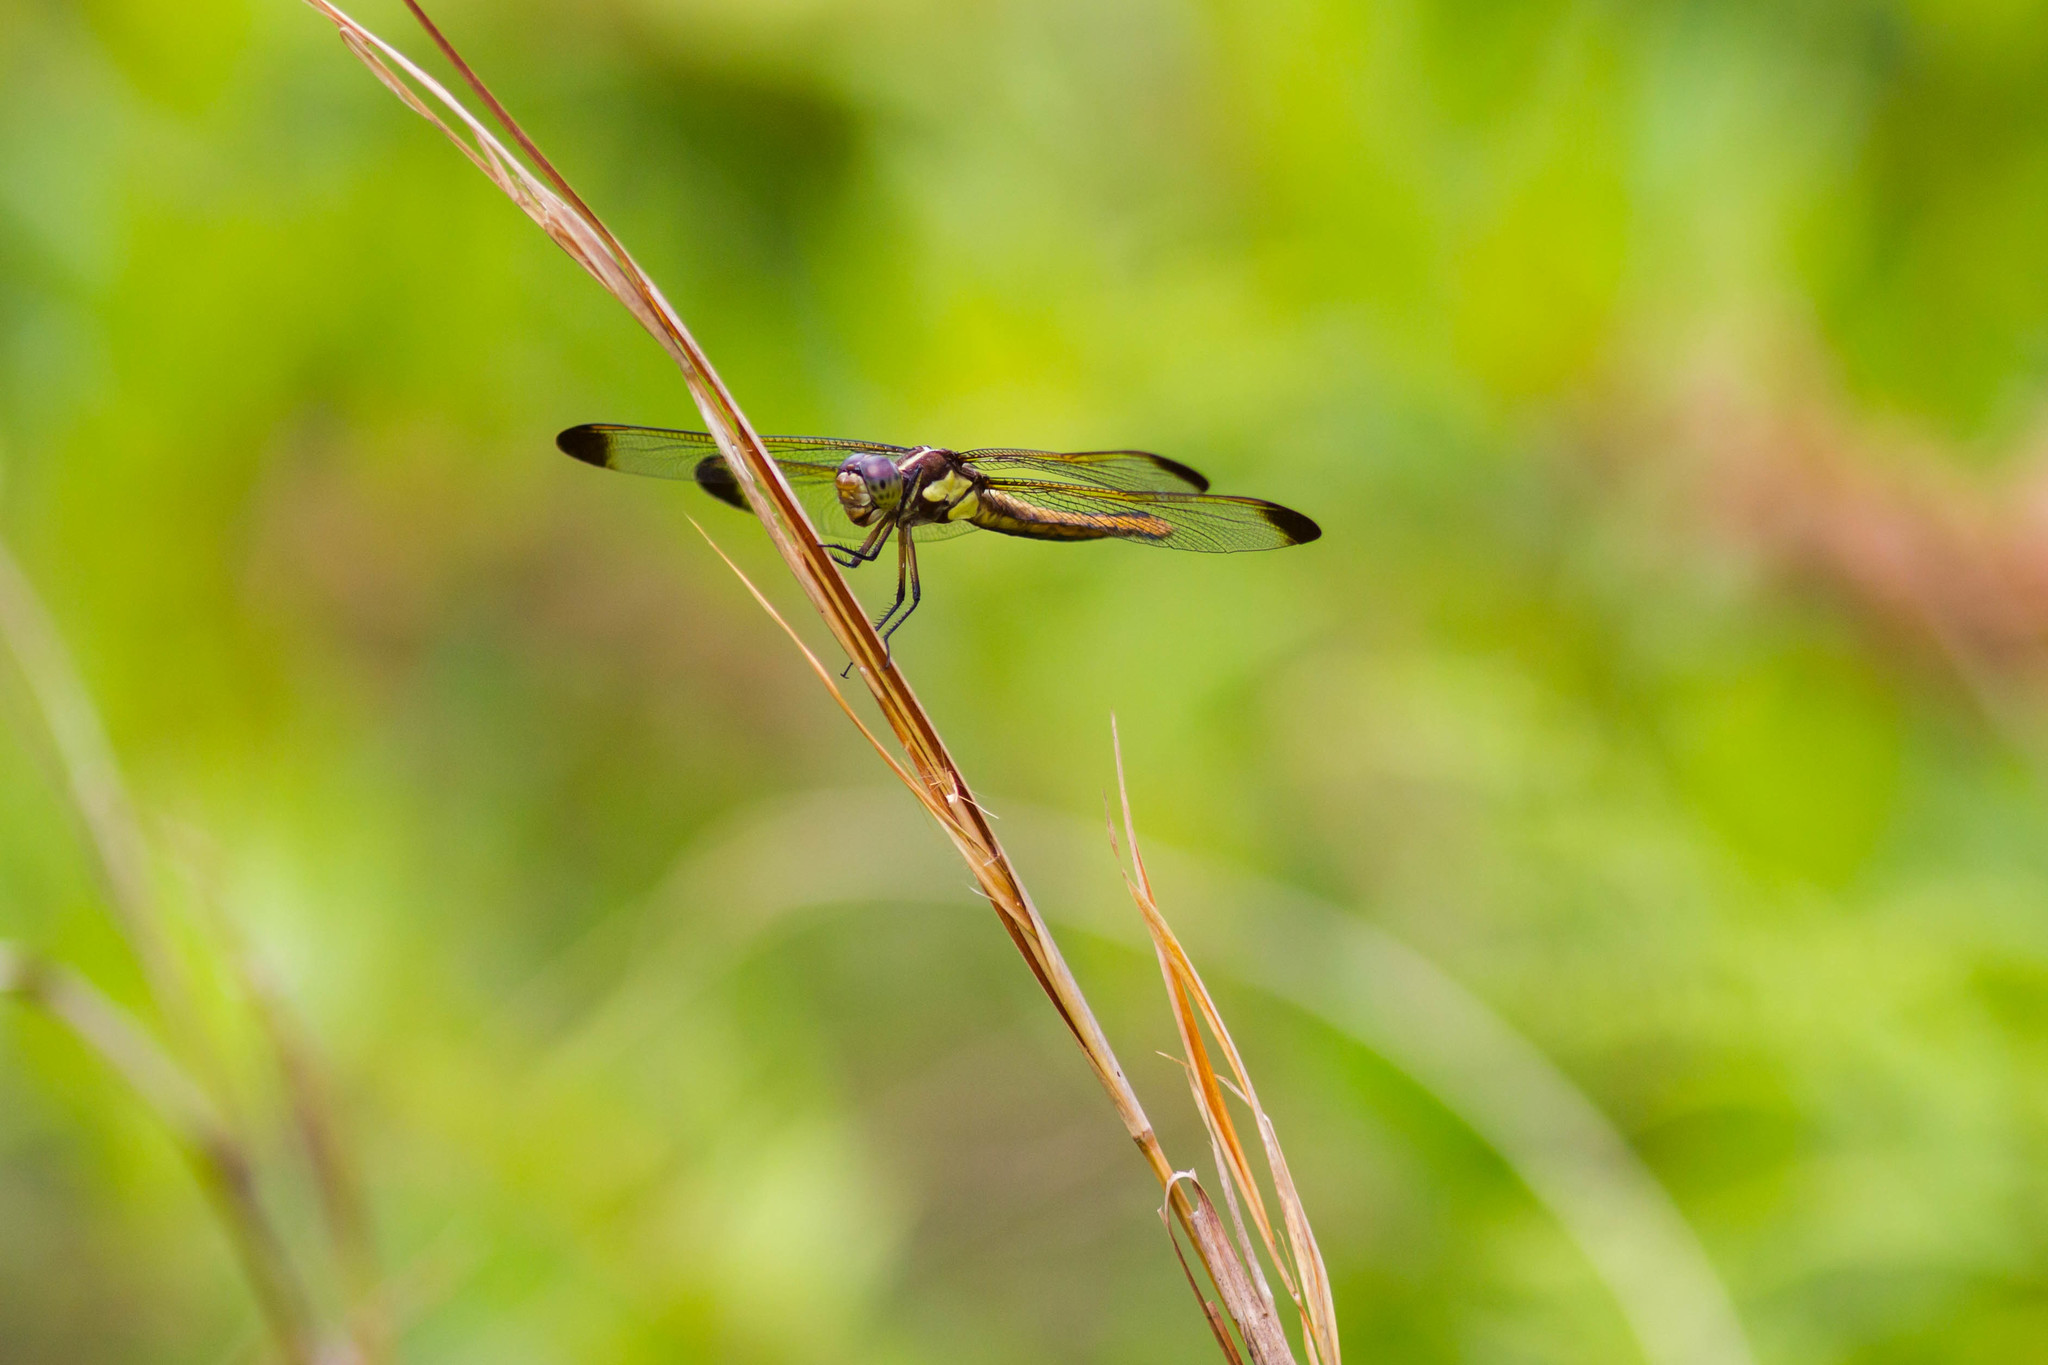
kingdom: Animalia
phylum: Arthropoda
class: Insecta
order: Odonata
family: Libellulidae
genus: Libellula
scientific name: Libellula flavida
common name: Yellow-sided skimmer
